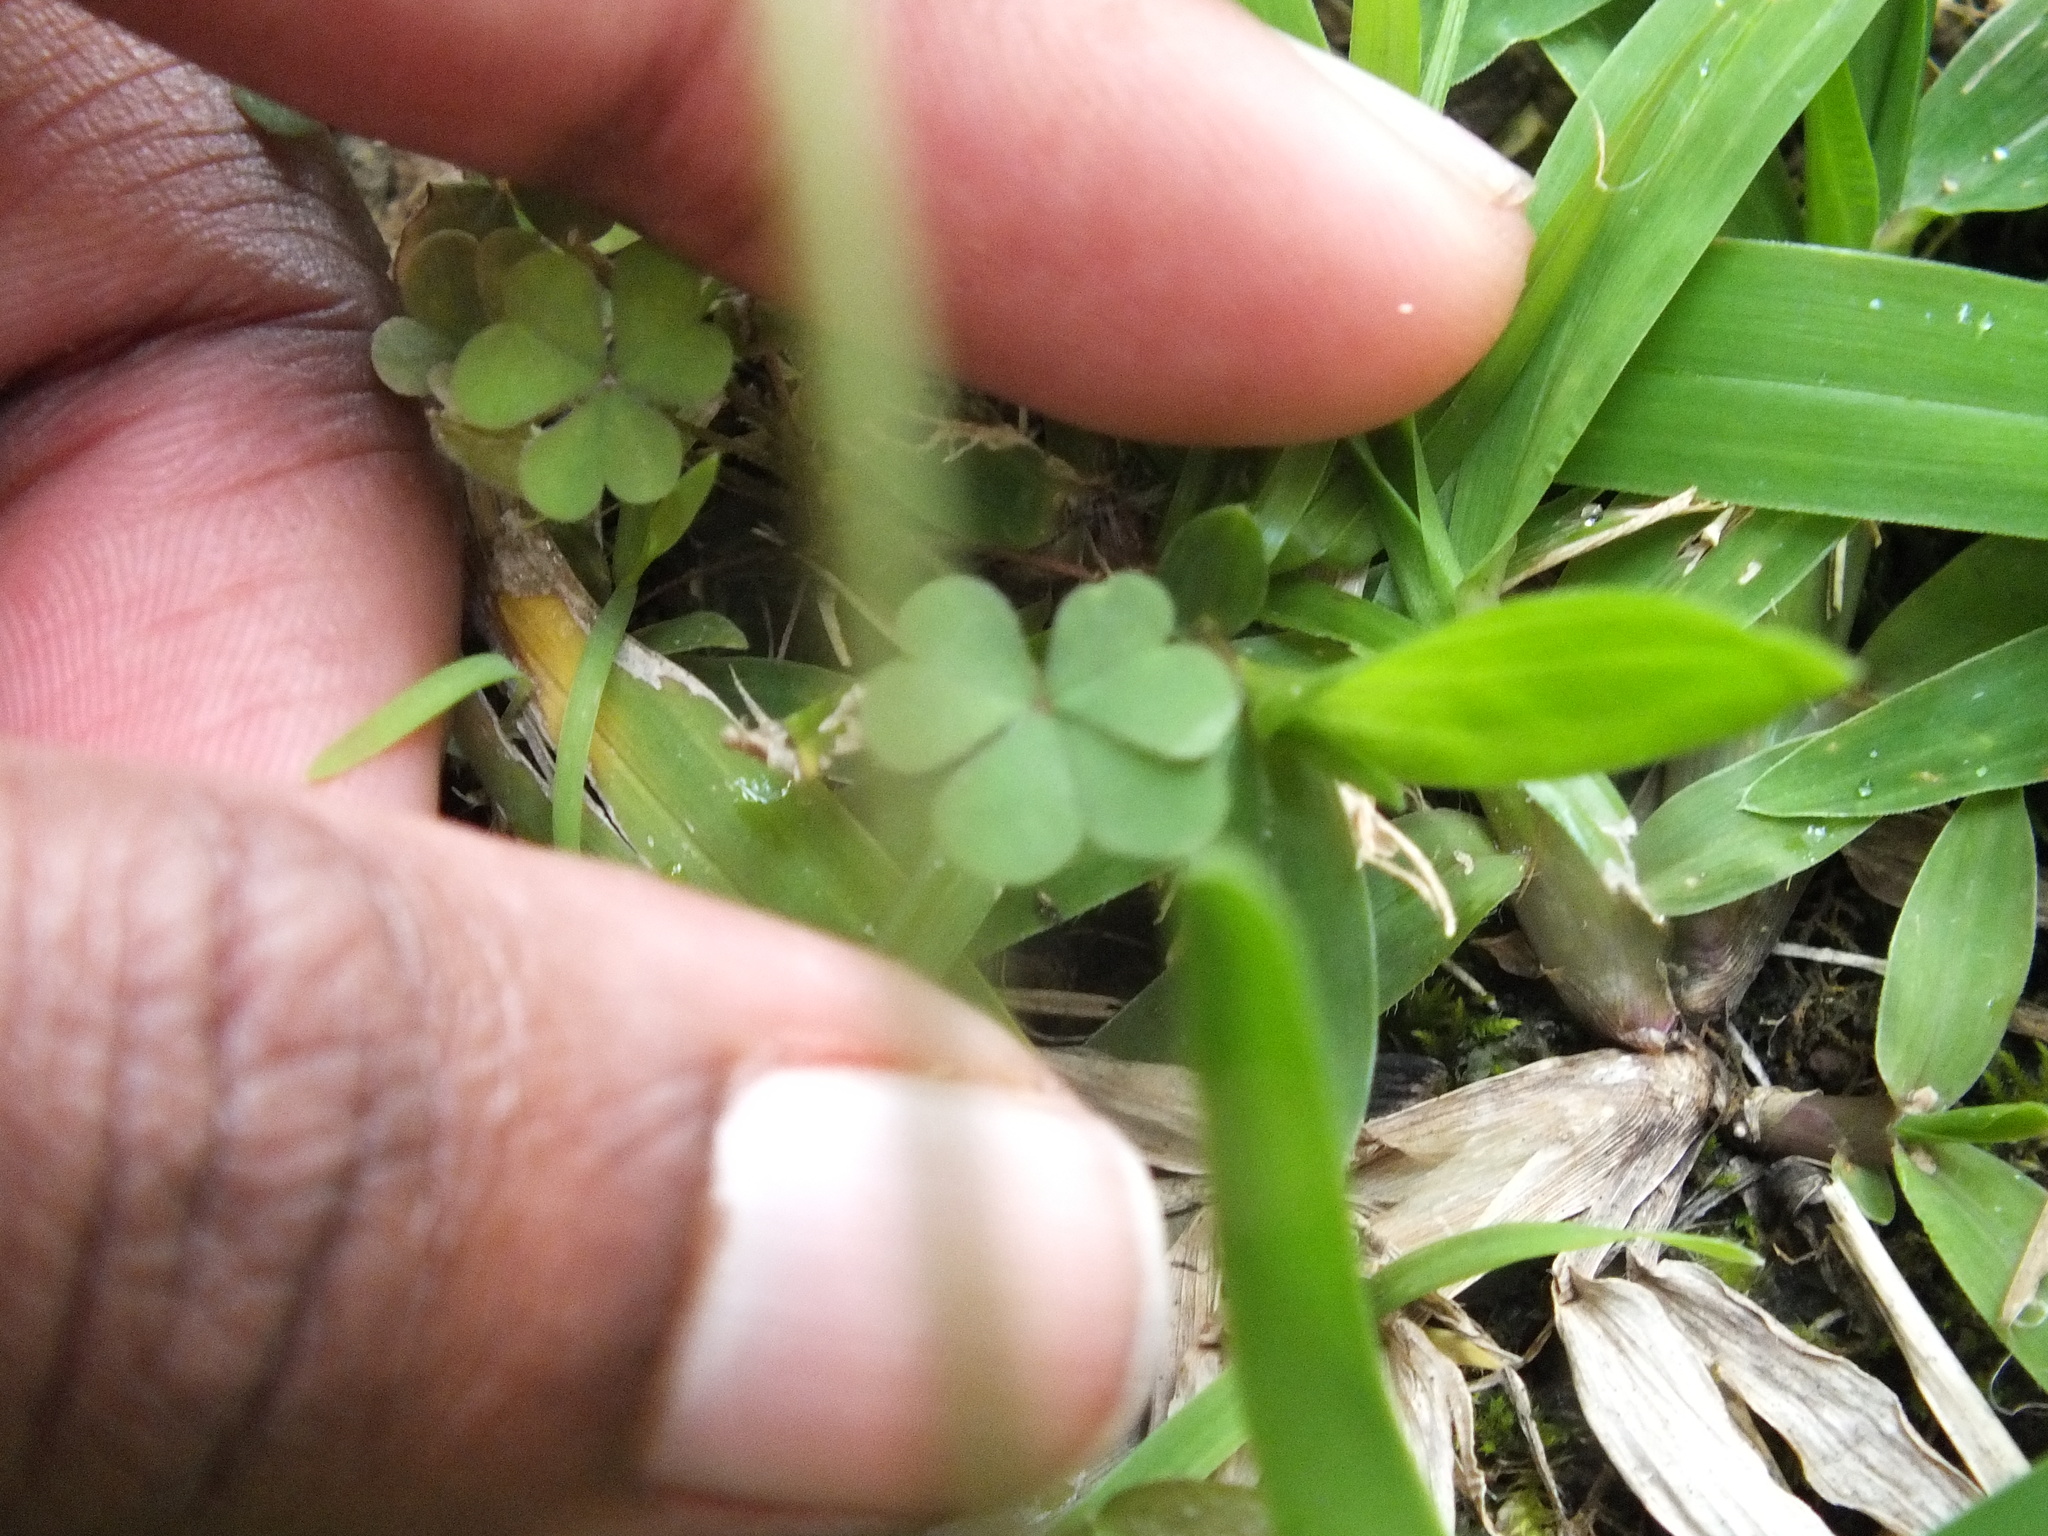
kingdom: Plantae
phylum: Tracheophyta
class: Magnoliopsida
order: Oxalidales
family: Oxalidaceae
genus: Oxalis
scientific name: Oxalis corniculata
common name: Procumbent yellow-sorrel
